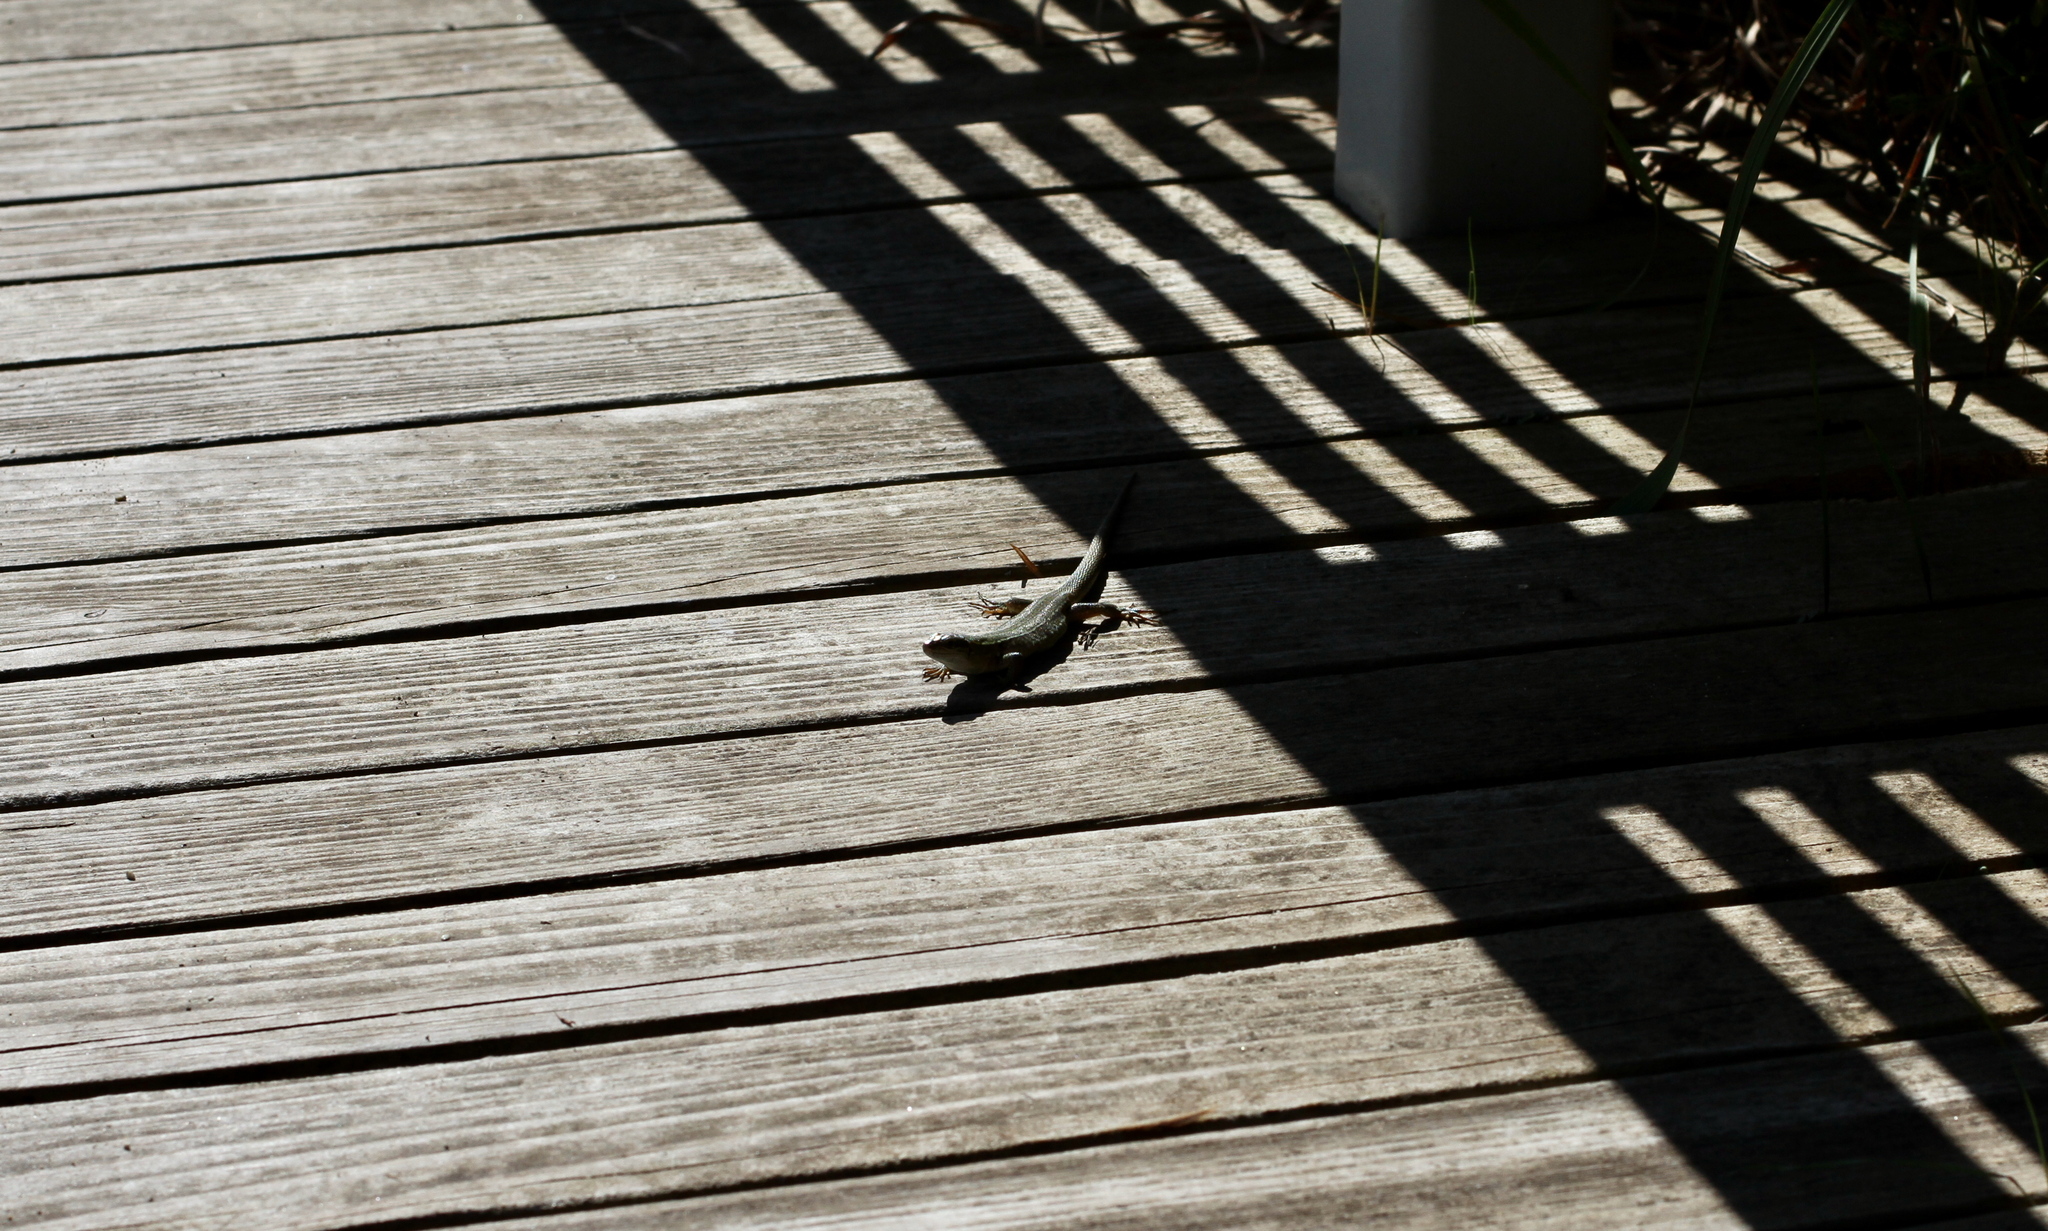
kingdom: Animalia
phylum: Chordata
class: Squamata
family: Lacertidae
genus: Podarcis
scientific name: Podarcis siculus
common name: Italian wall lizard
